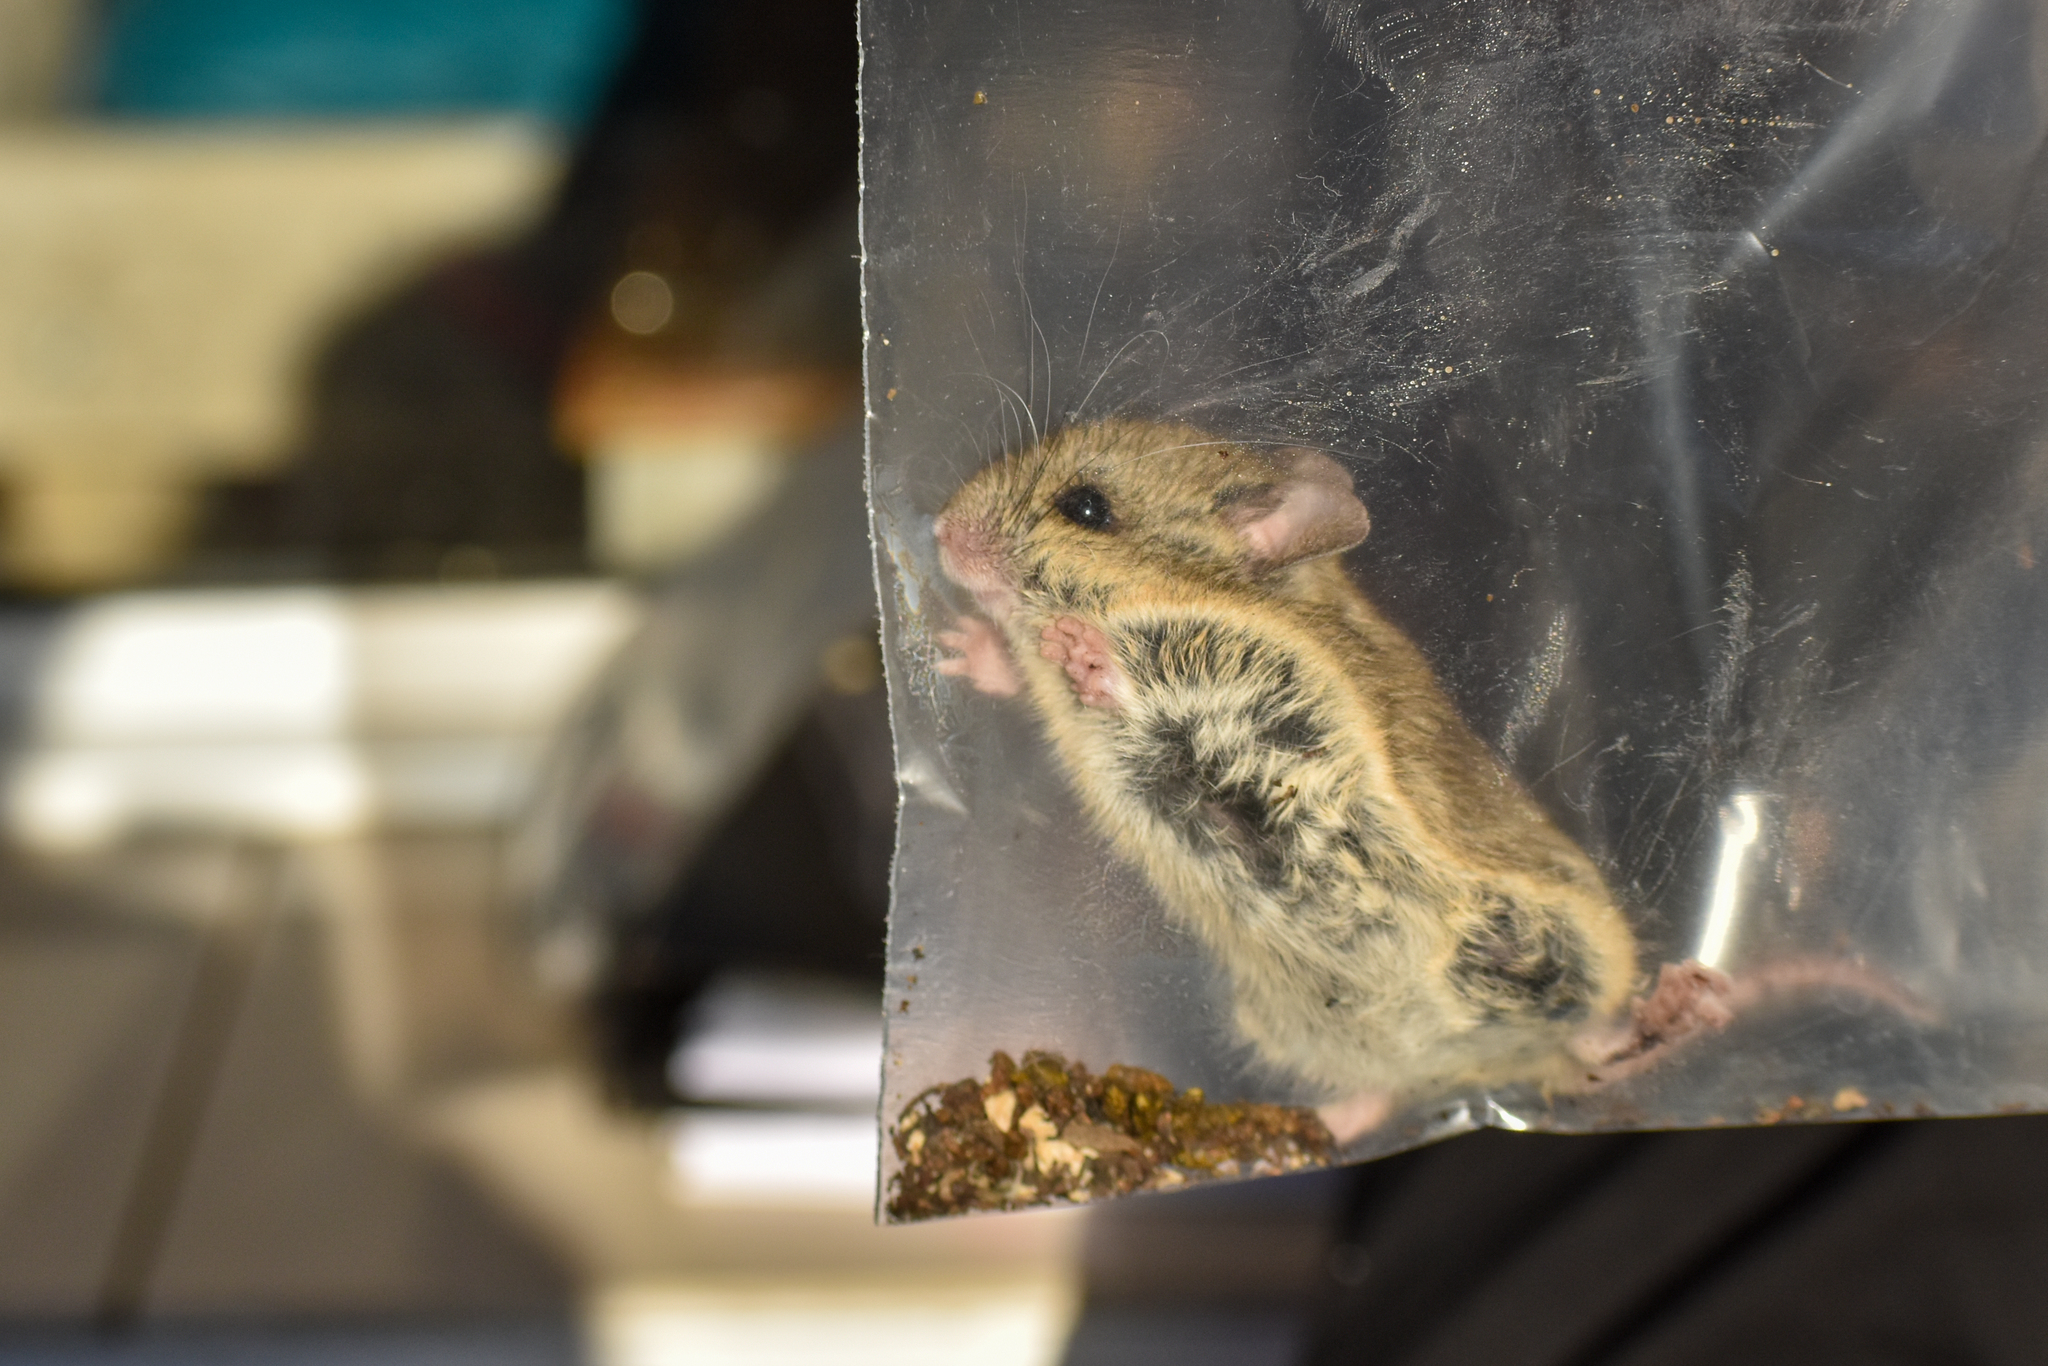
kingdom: Animalia
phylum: Chordata
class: Mammalia
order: Rodentia
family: Cricetidae
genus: Abrothrix
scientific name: Abrothrix olivaceus
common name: Olive-colored akodont
